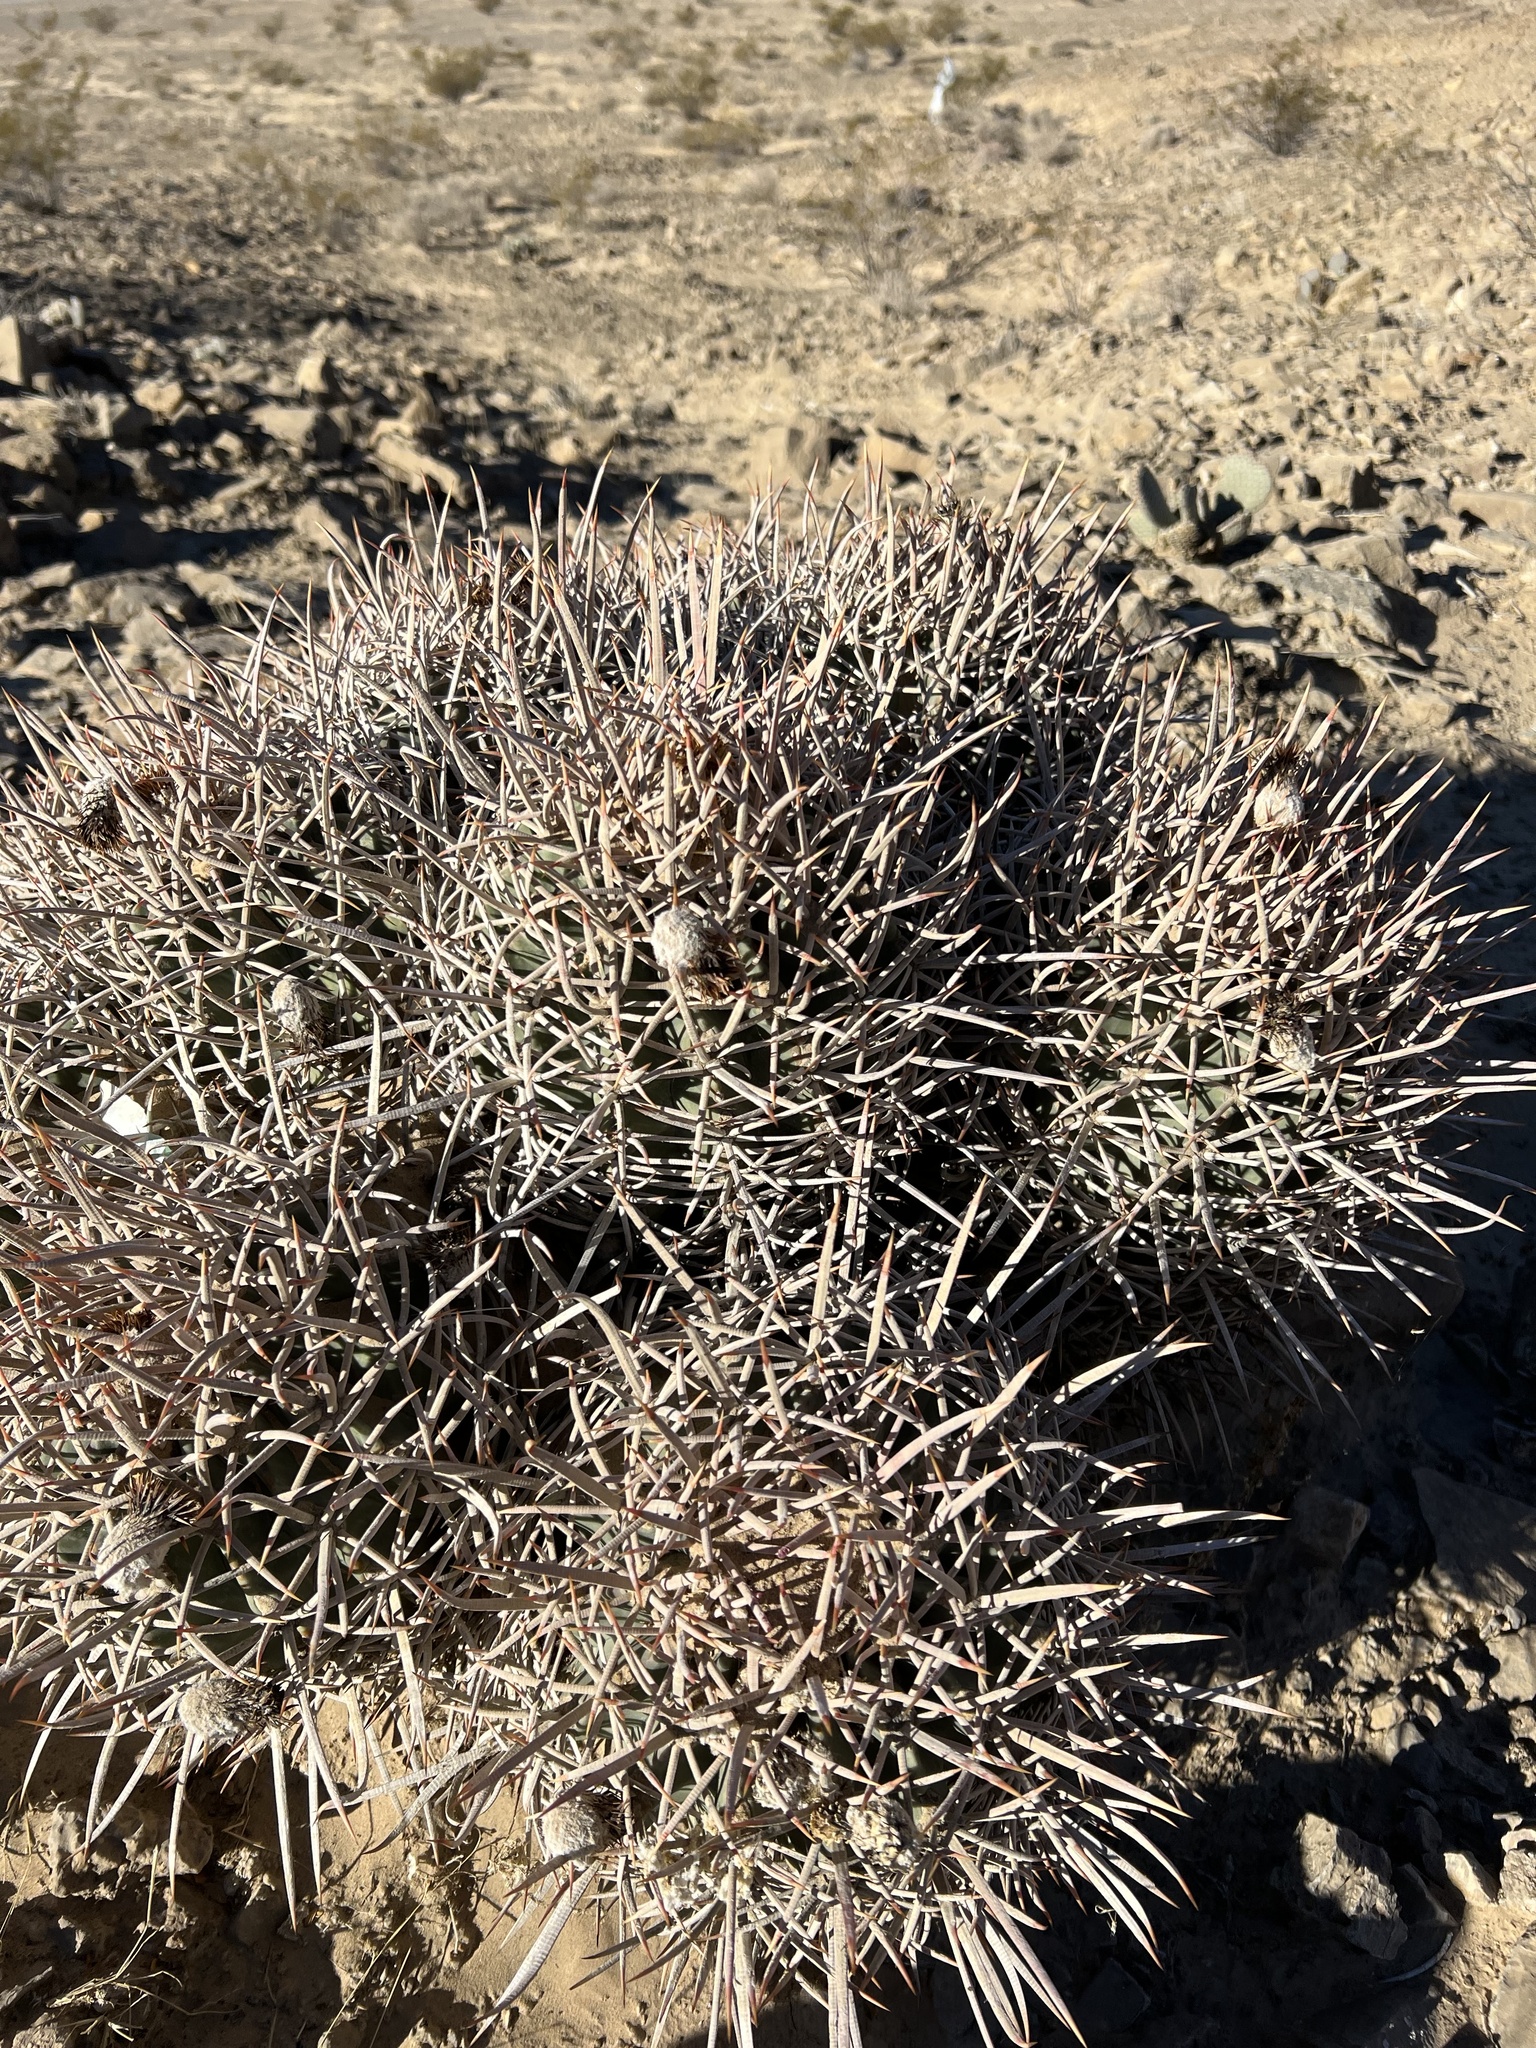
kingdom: Plantae
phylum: Tracheophyta
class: Magnoliopsida
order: Caryophyllales
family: Cactaceae
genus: Echinocactus
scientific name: Echinocactus polycephalus
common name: Cottontop cactus
